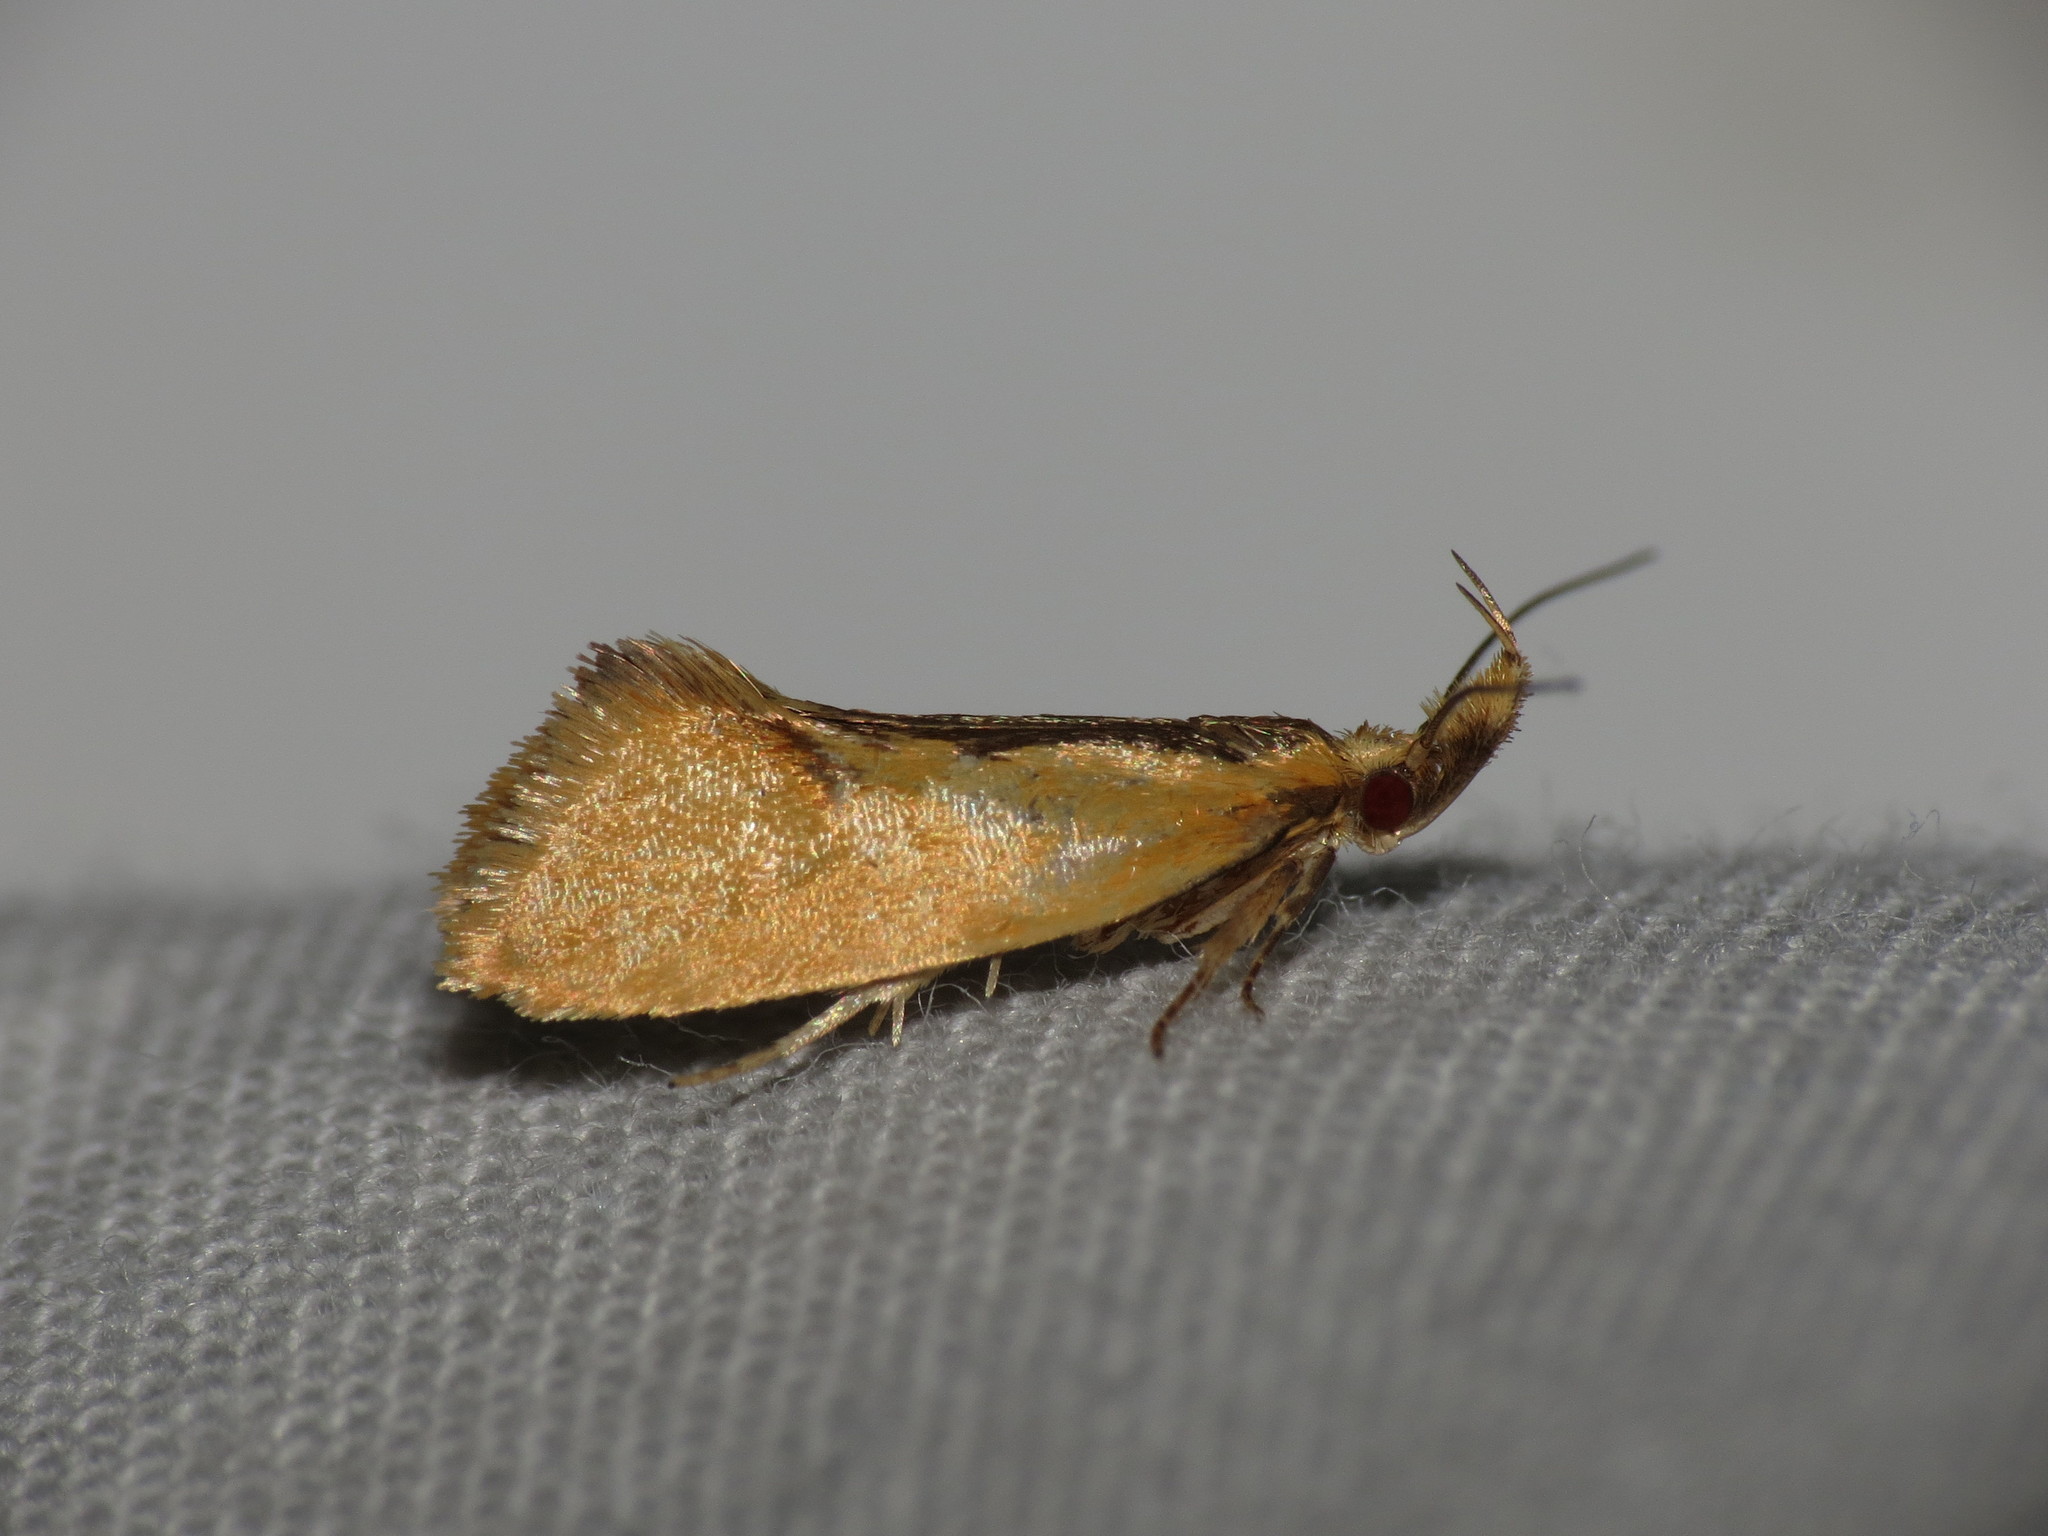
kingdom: Animalia
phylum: Arthropoda
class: Insecta
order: Lepidoptera
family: Oecophoridae
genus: Thema
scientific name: Thema psammoxantha
